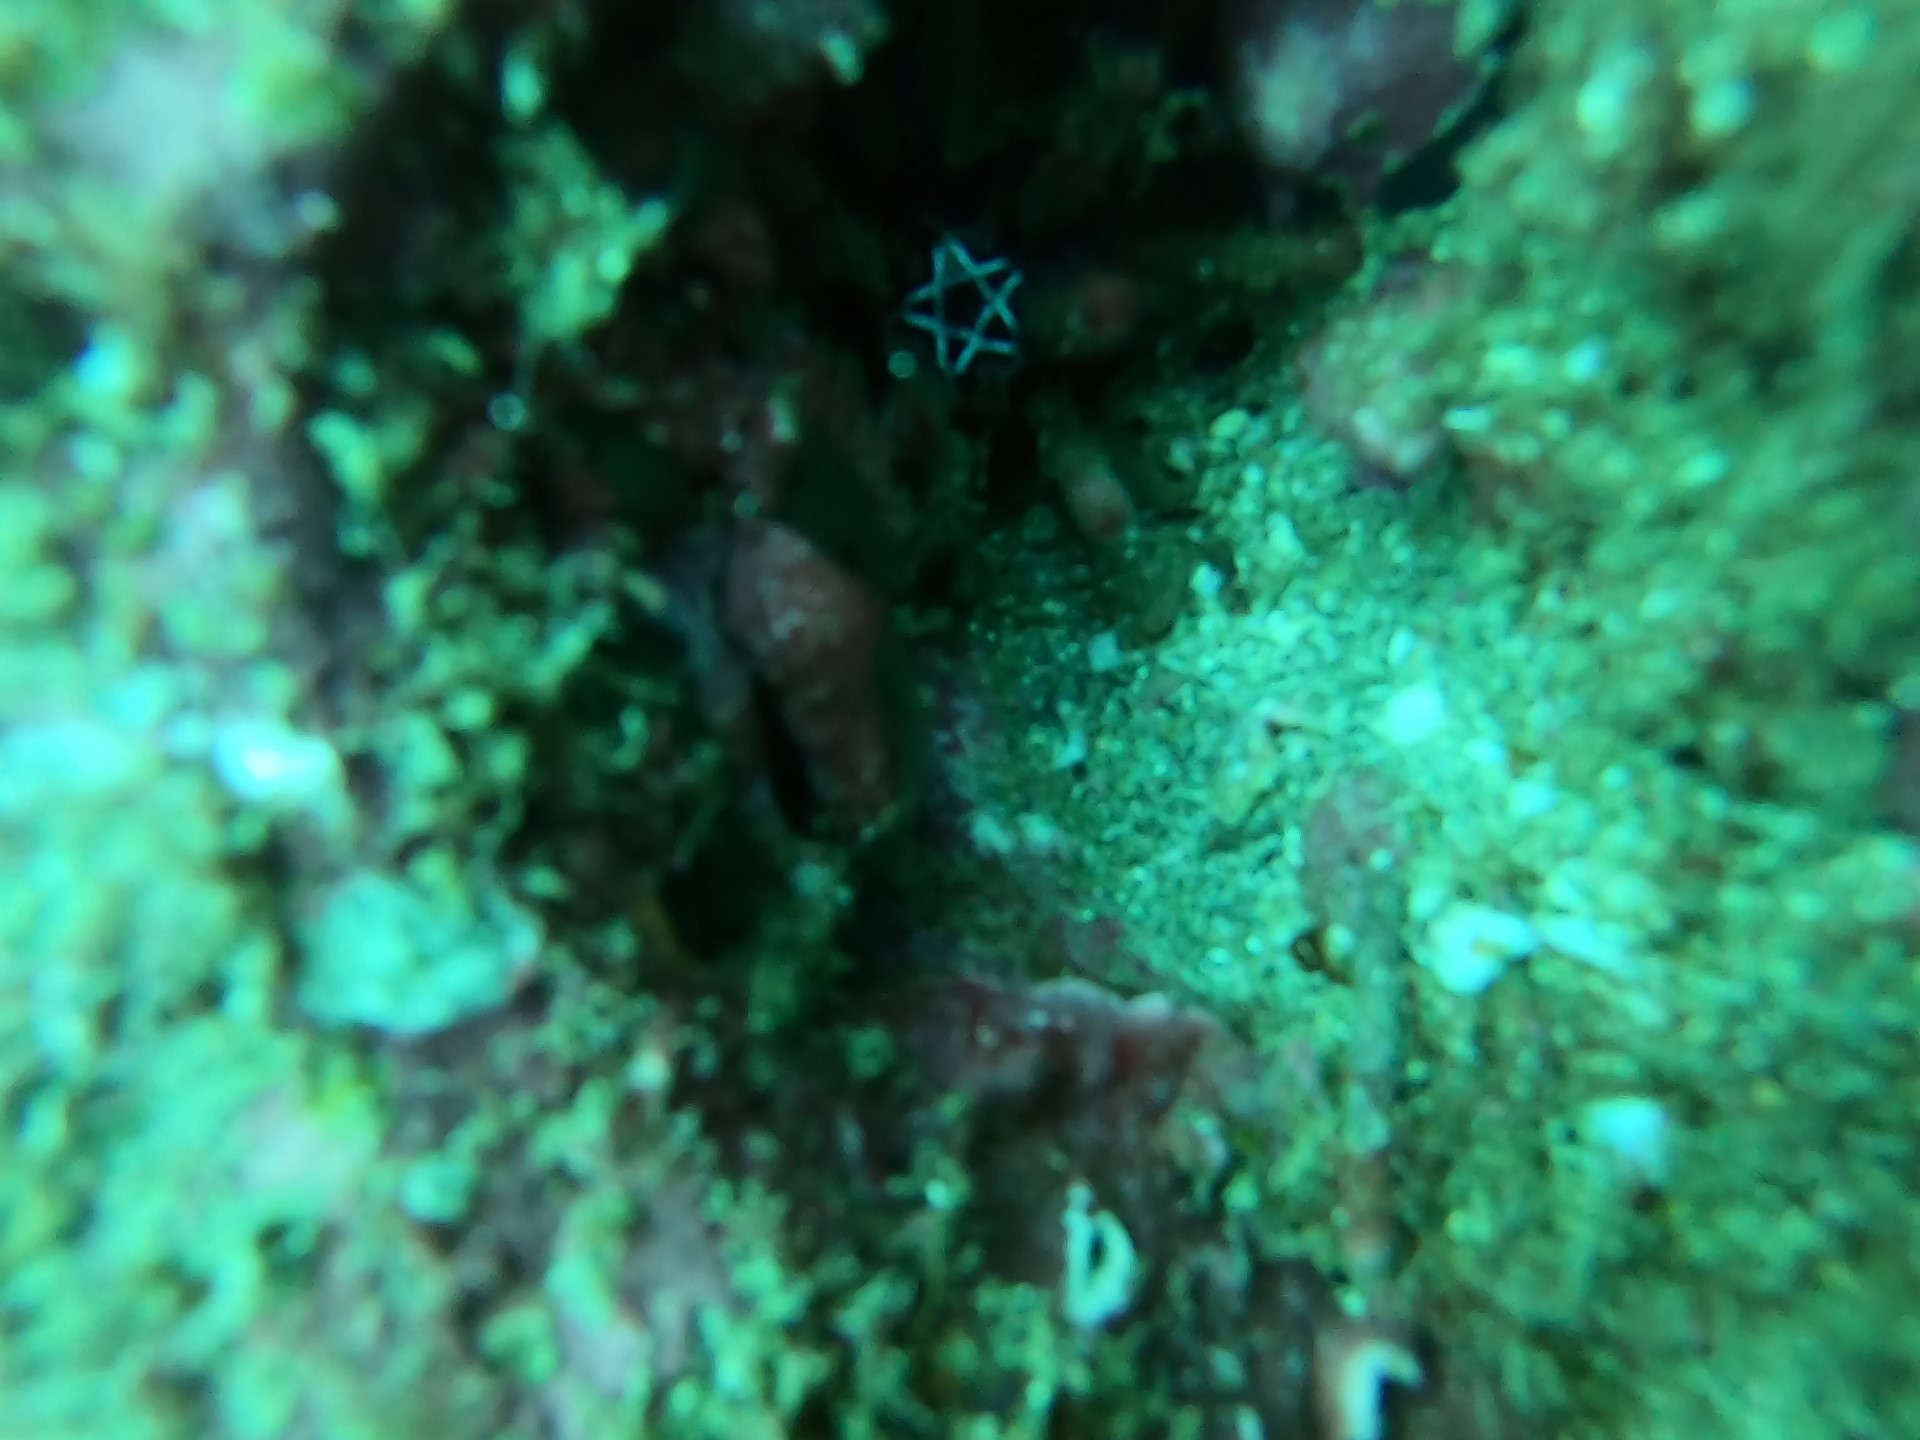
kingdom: Animalia
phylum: Echinodermata
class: Echinoidea
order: Cidaroida
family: Cidaridae
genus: Eucidaris
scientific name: Eucidaris thouarsii
